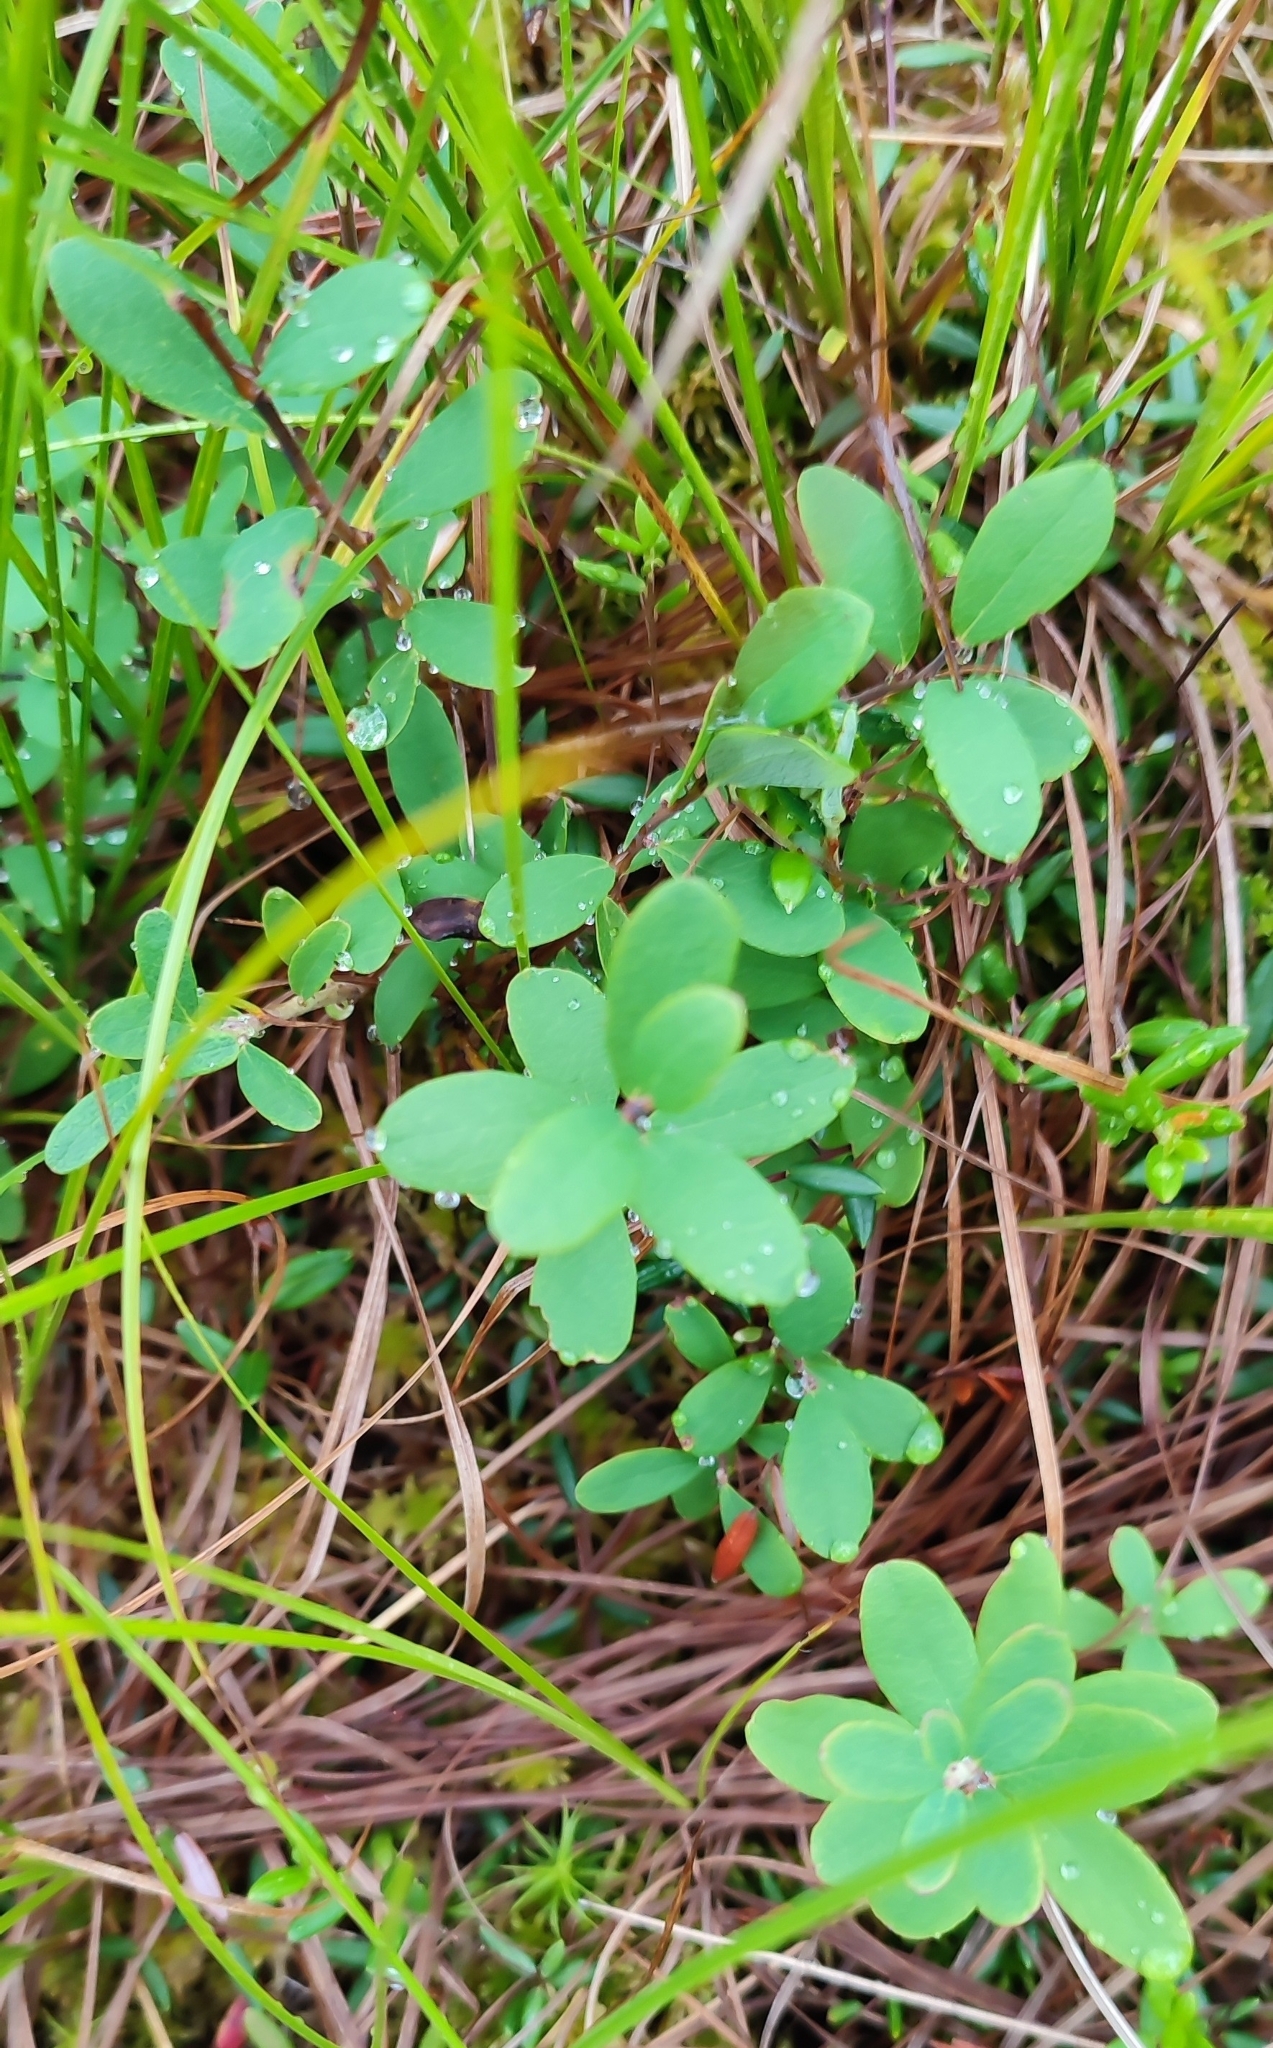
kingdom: Plantae
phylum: Tracheophyta
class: Magnoliopsida
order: Ericales
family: Ericaceae
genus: Vaccinium
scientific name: Vaccinium uliginosum
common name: Bog bilberry
